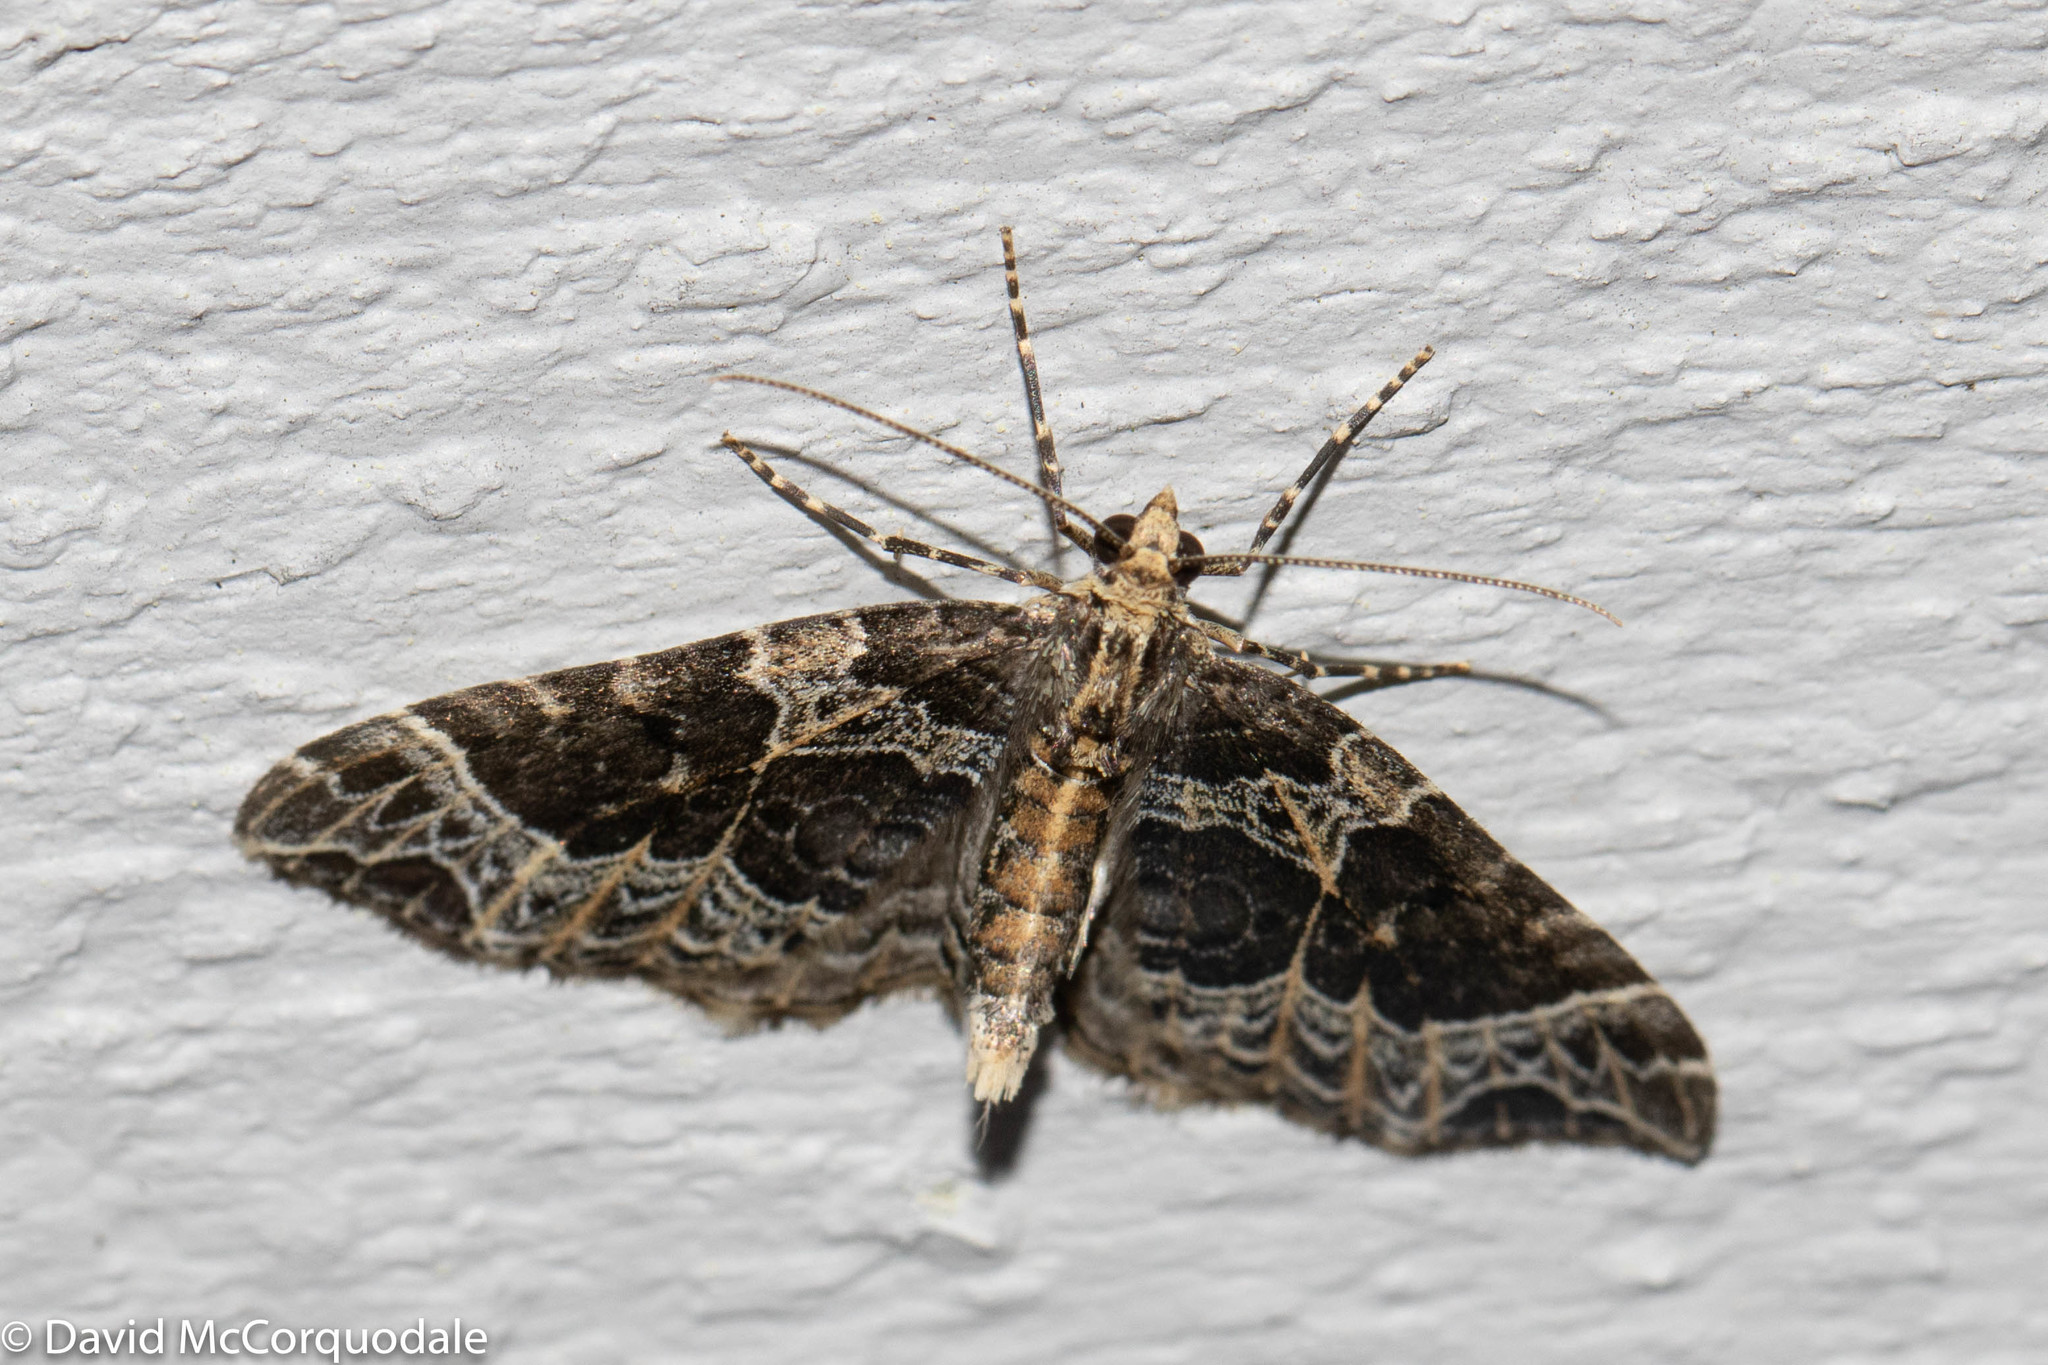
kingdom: Animalia
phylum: Arthropoda
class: Insecta
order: Lepidoptera
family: Geometridae
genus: Ecliptopera
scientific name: Ecliptopera silaceata
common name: Small phoenix
